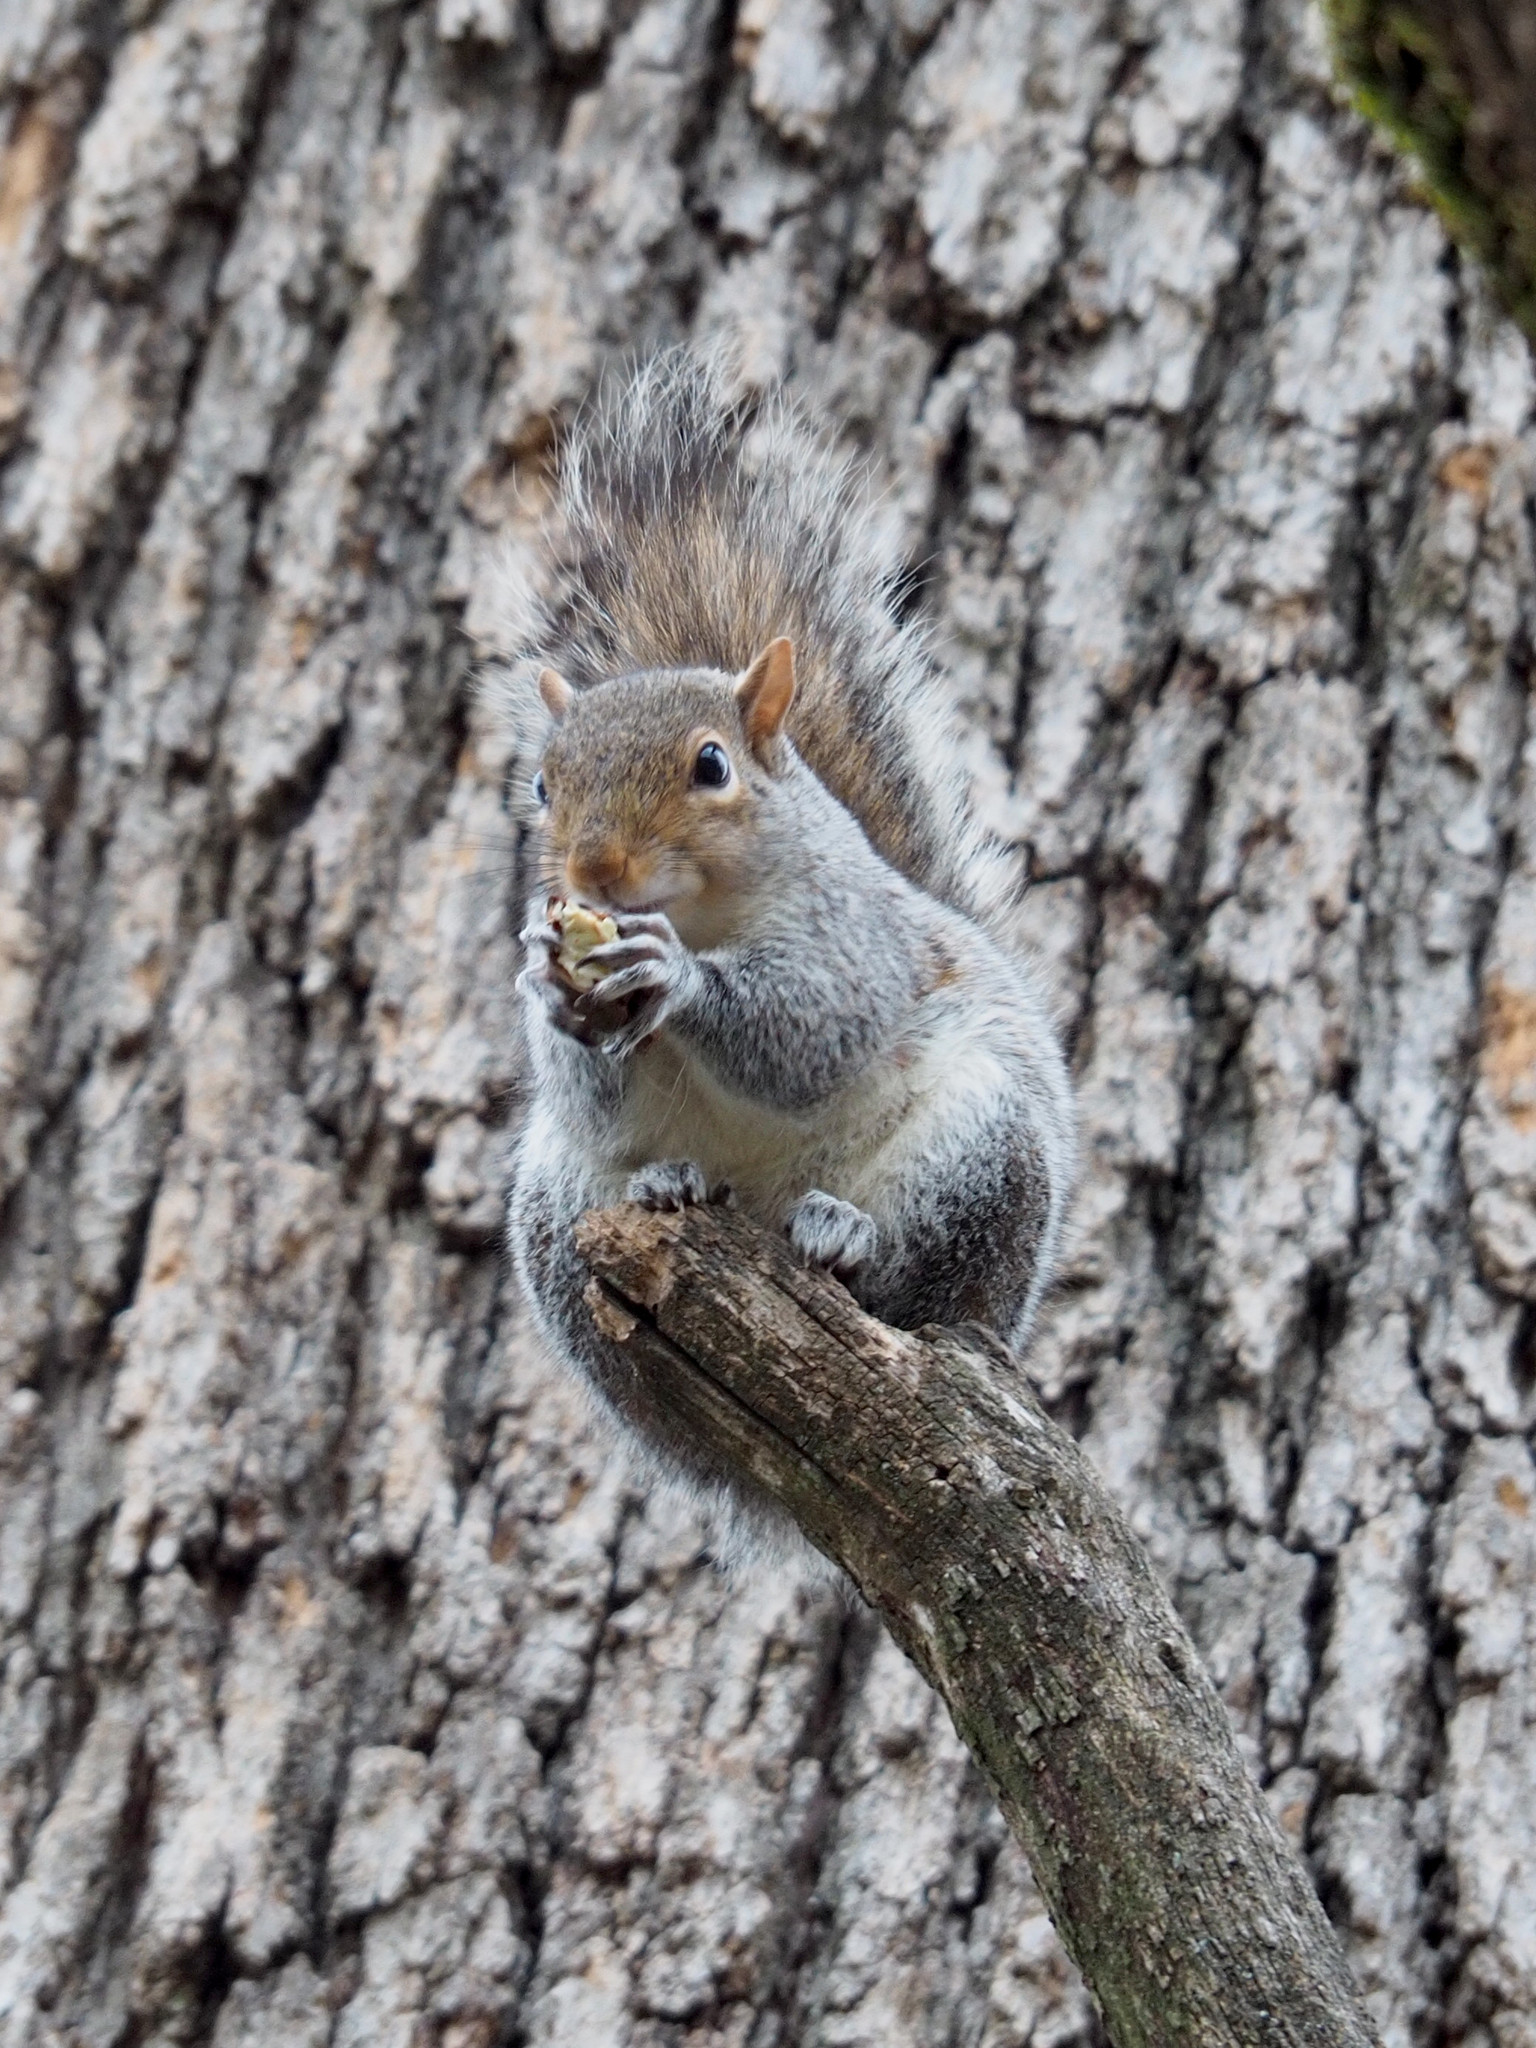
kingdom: Animalia
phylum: Chordata
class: Mammalia
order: Rodentia
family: Sciuridae
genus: Sciurus
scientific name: Sciurus carolinensis
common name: Eastern gray squirrel
